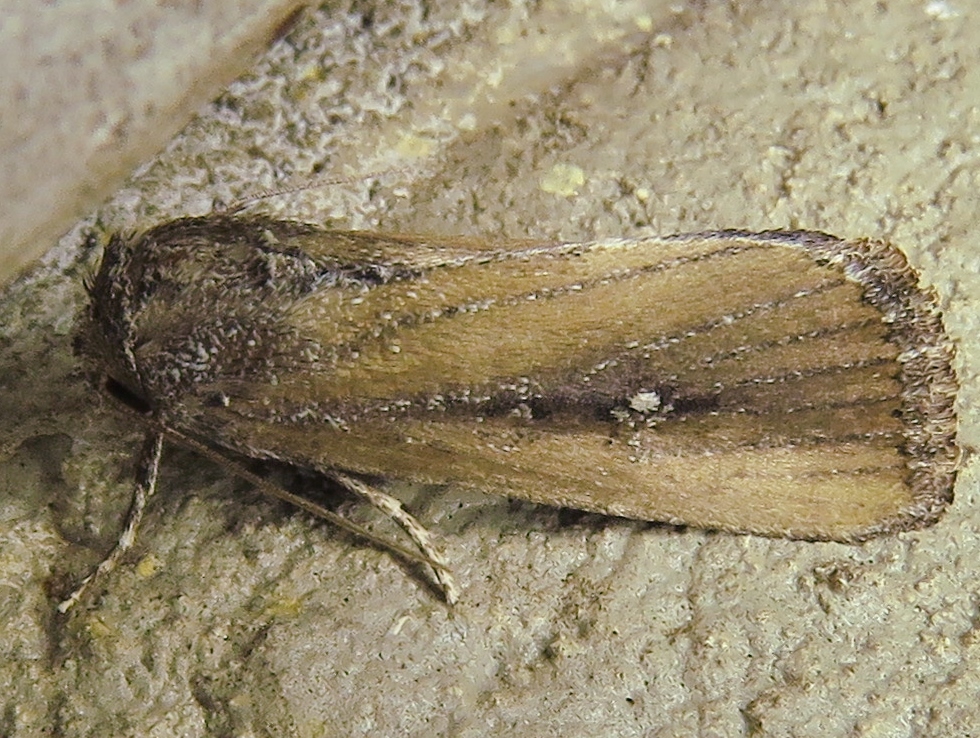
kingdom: Animalia
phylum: Arthropoda
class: Insecta
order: Lepidoptera
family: Noctuidae
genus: Condica
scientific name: Condica videns
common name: White-dotted groundling
